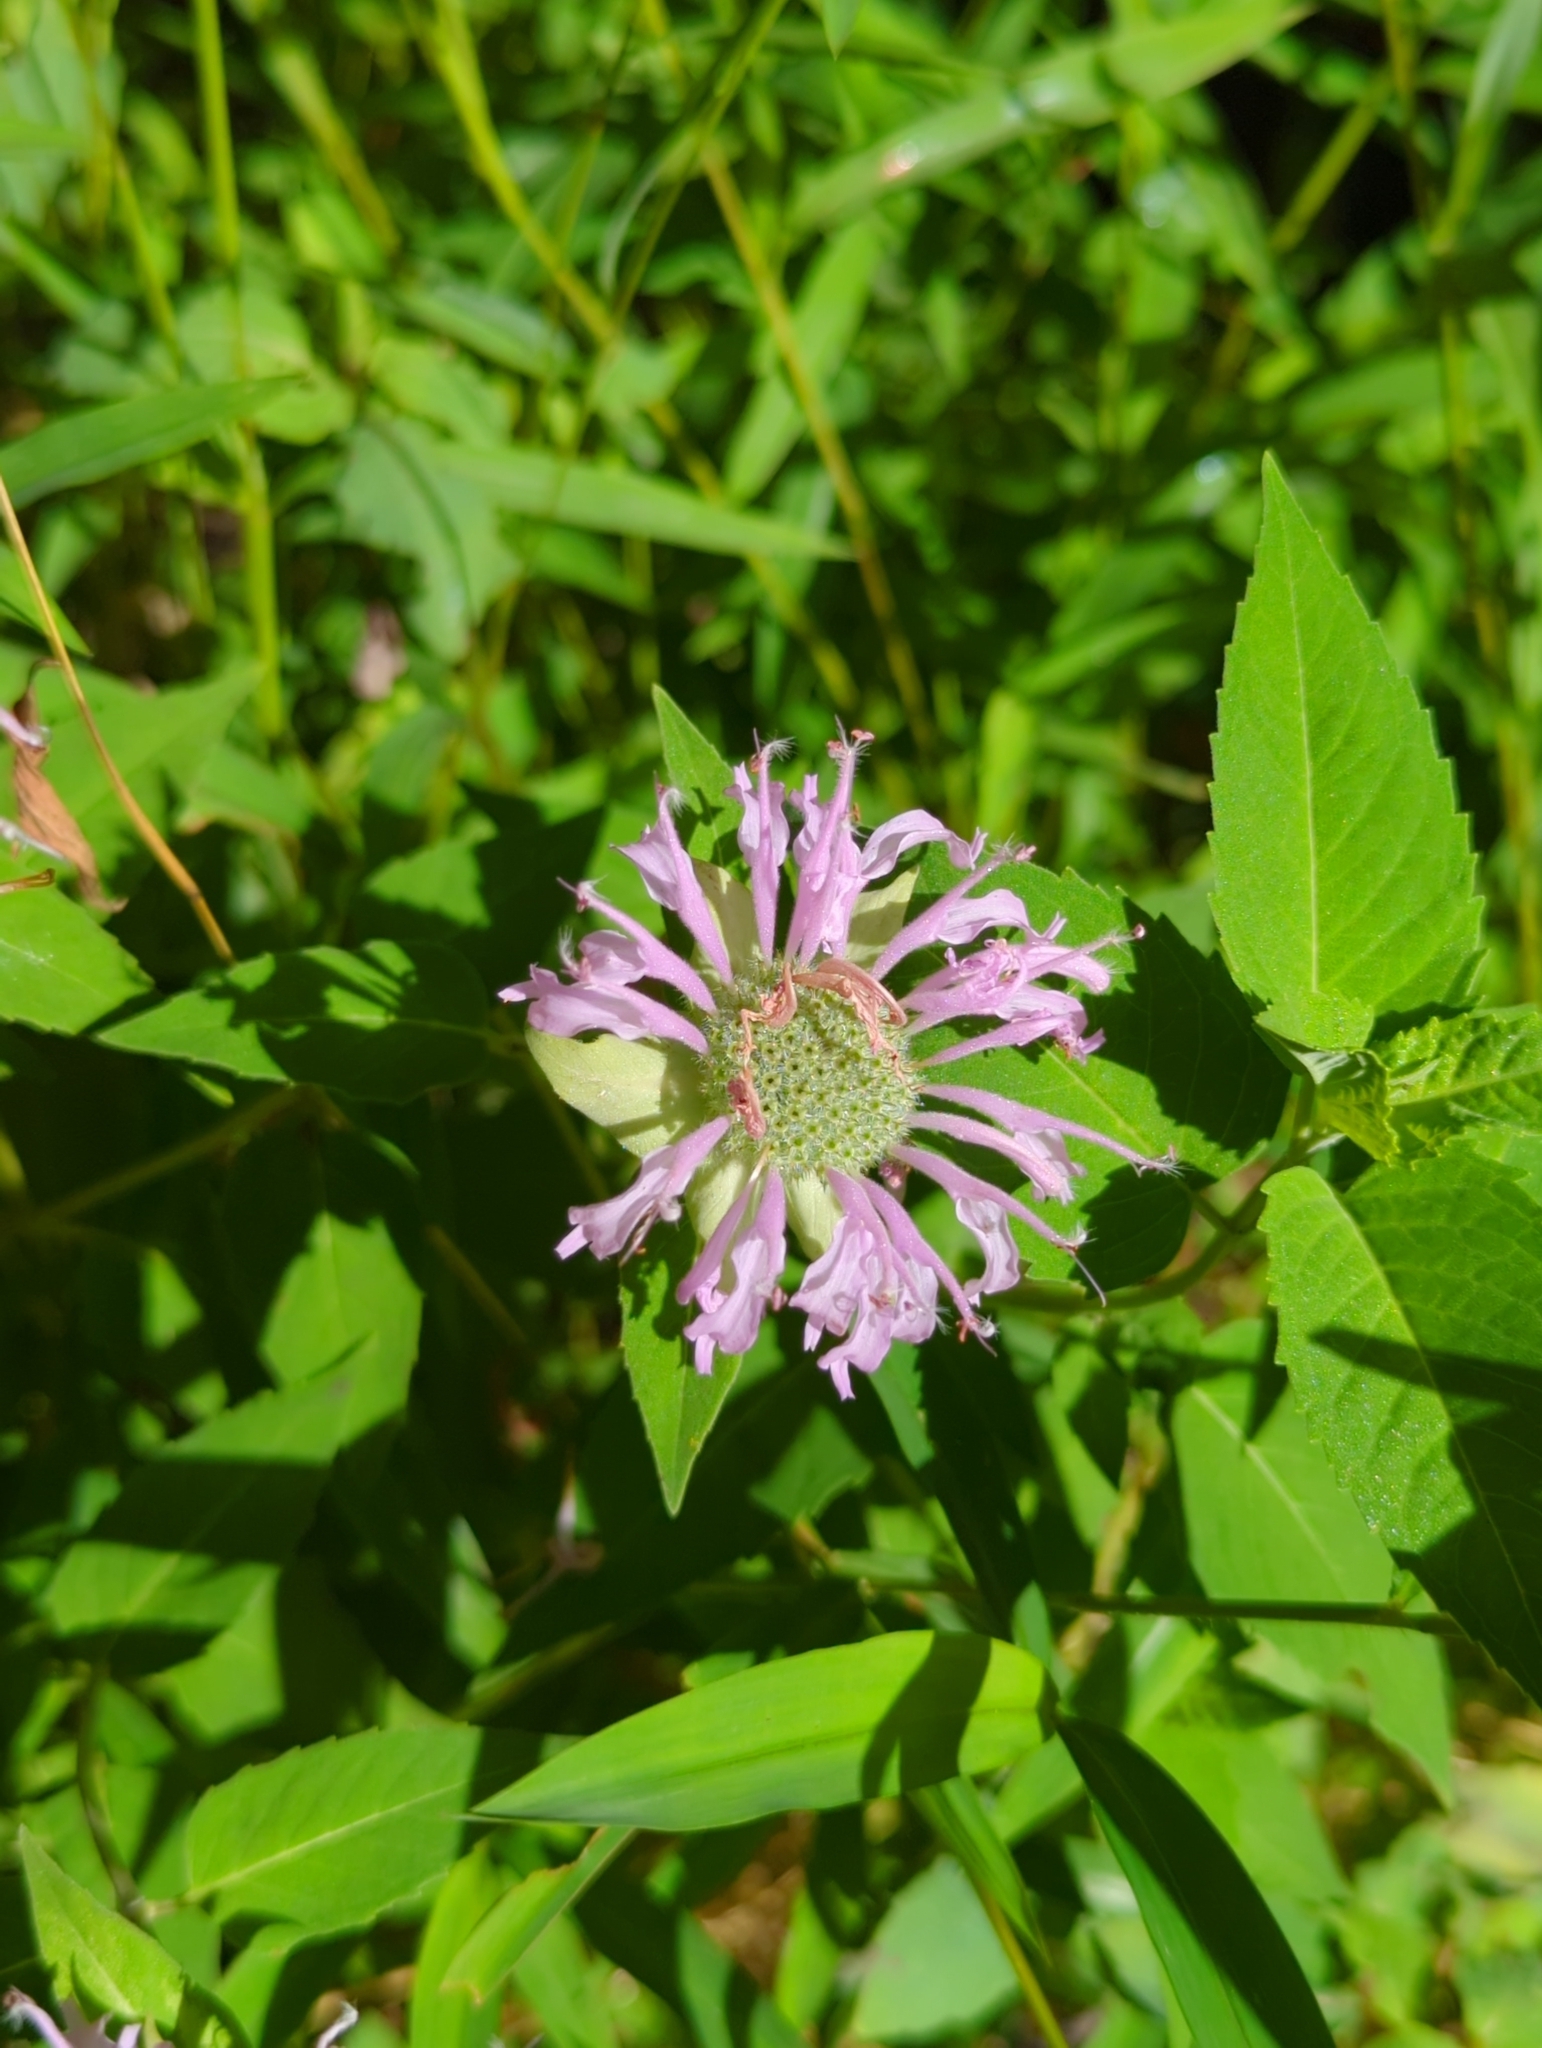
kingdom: Plantae
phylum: Tracheophyta
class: Magnoliopsida
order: Lamiales
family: Lamiaceae
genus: Monarda
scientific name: Monarda fistulosa
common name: Purple beebalm
